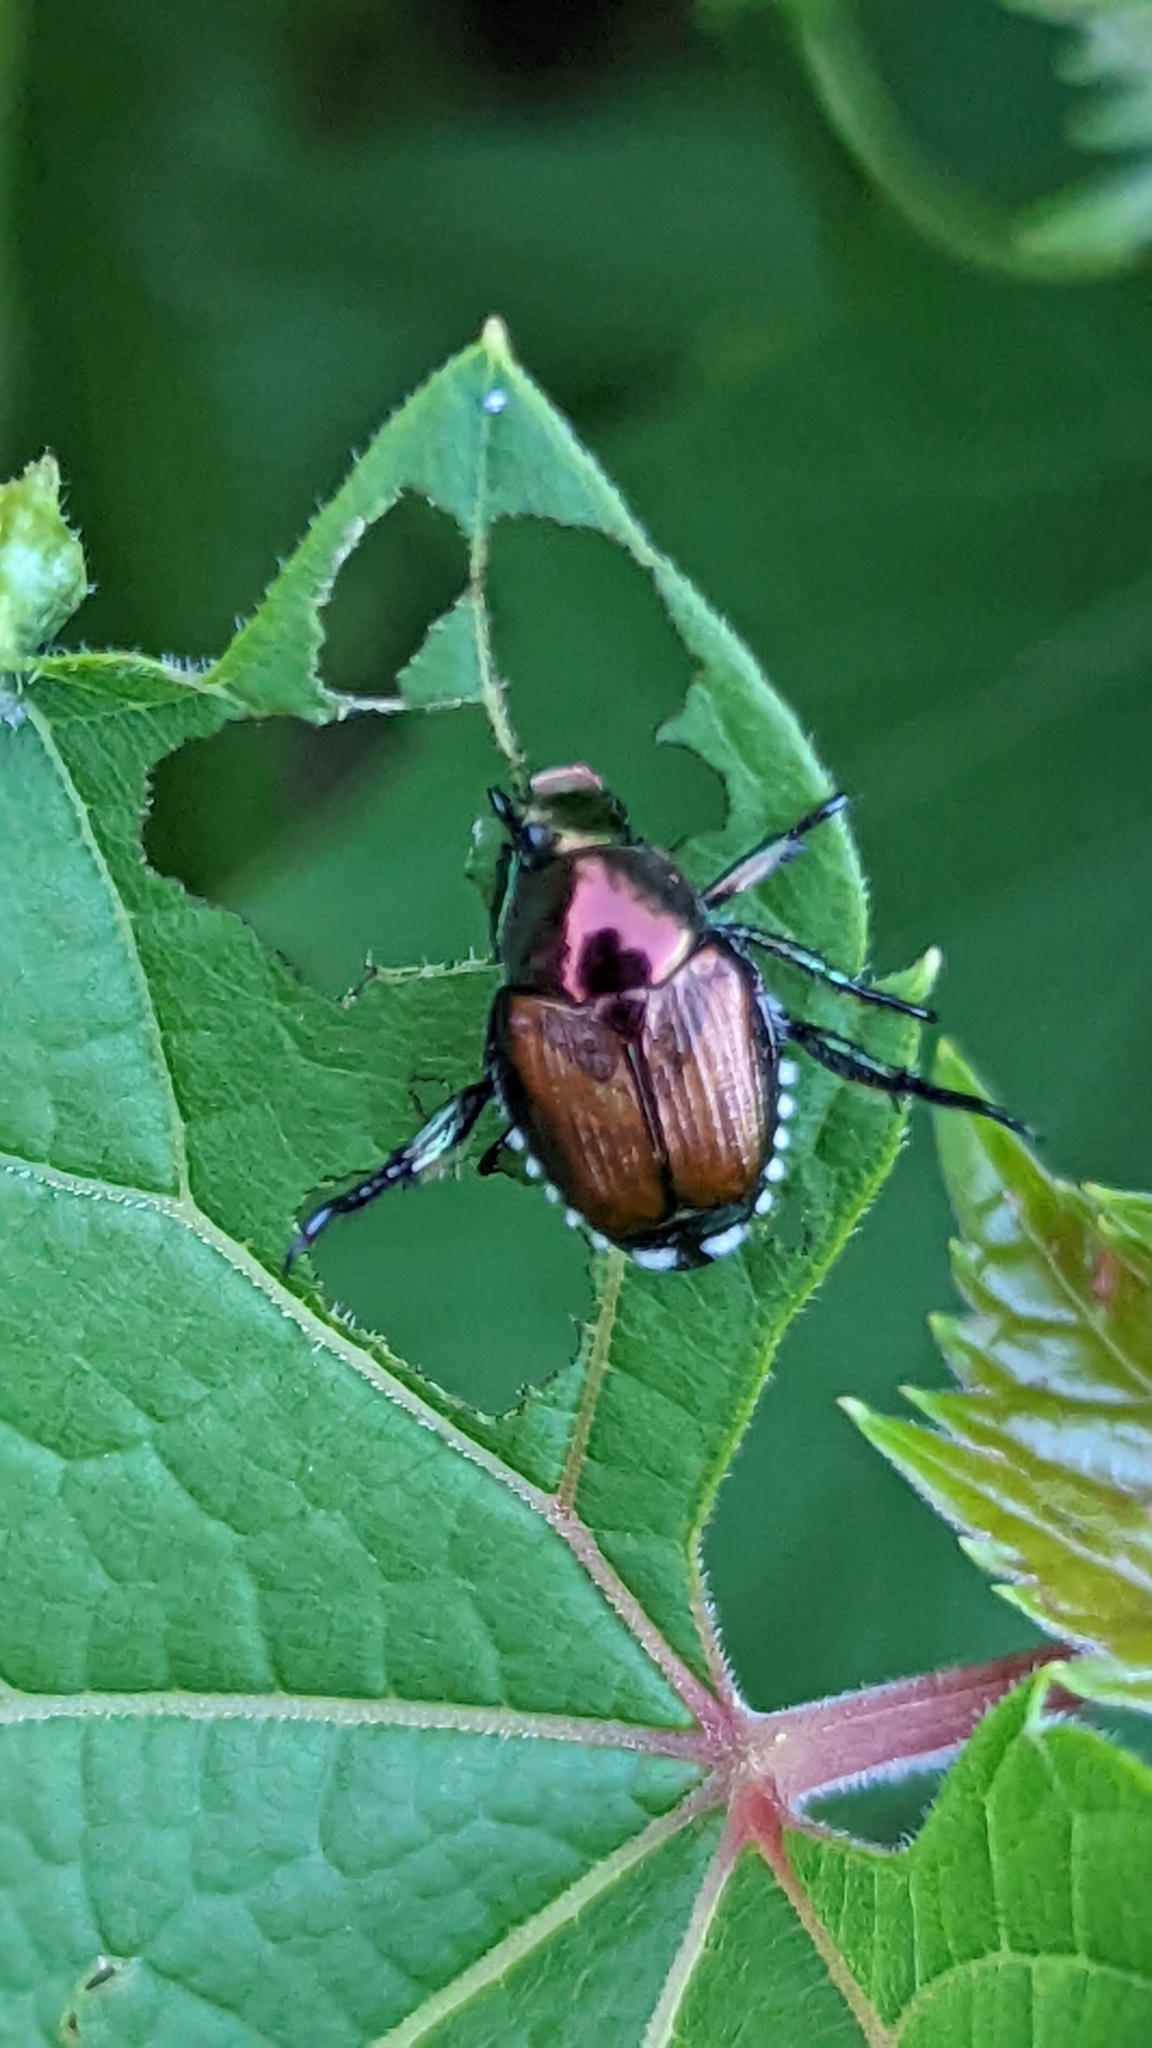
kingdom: Animalia
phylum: Arthropoda
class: Insecta
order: Coleoptera
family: Scarabaeidae
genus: Popillia
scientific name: Popillia japonica
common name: Japanese beetle
